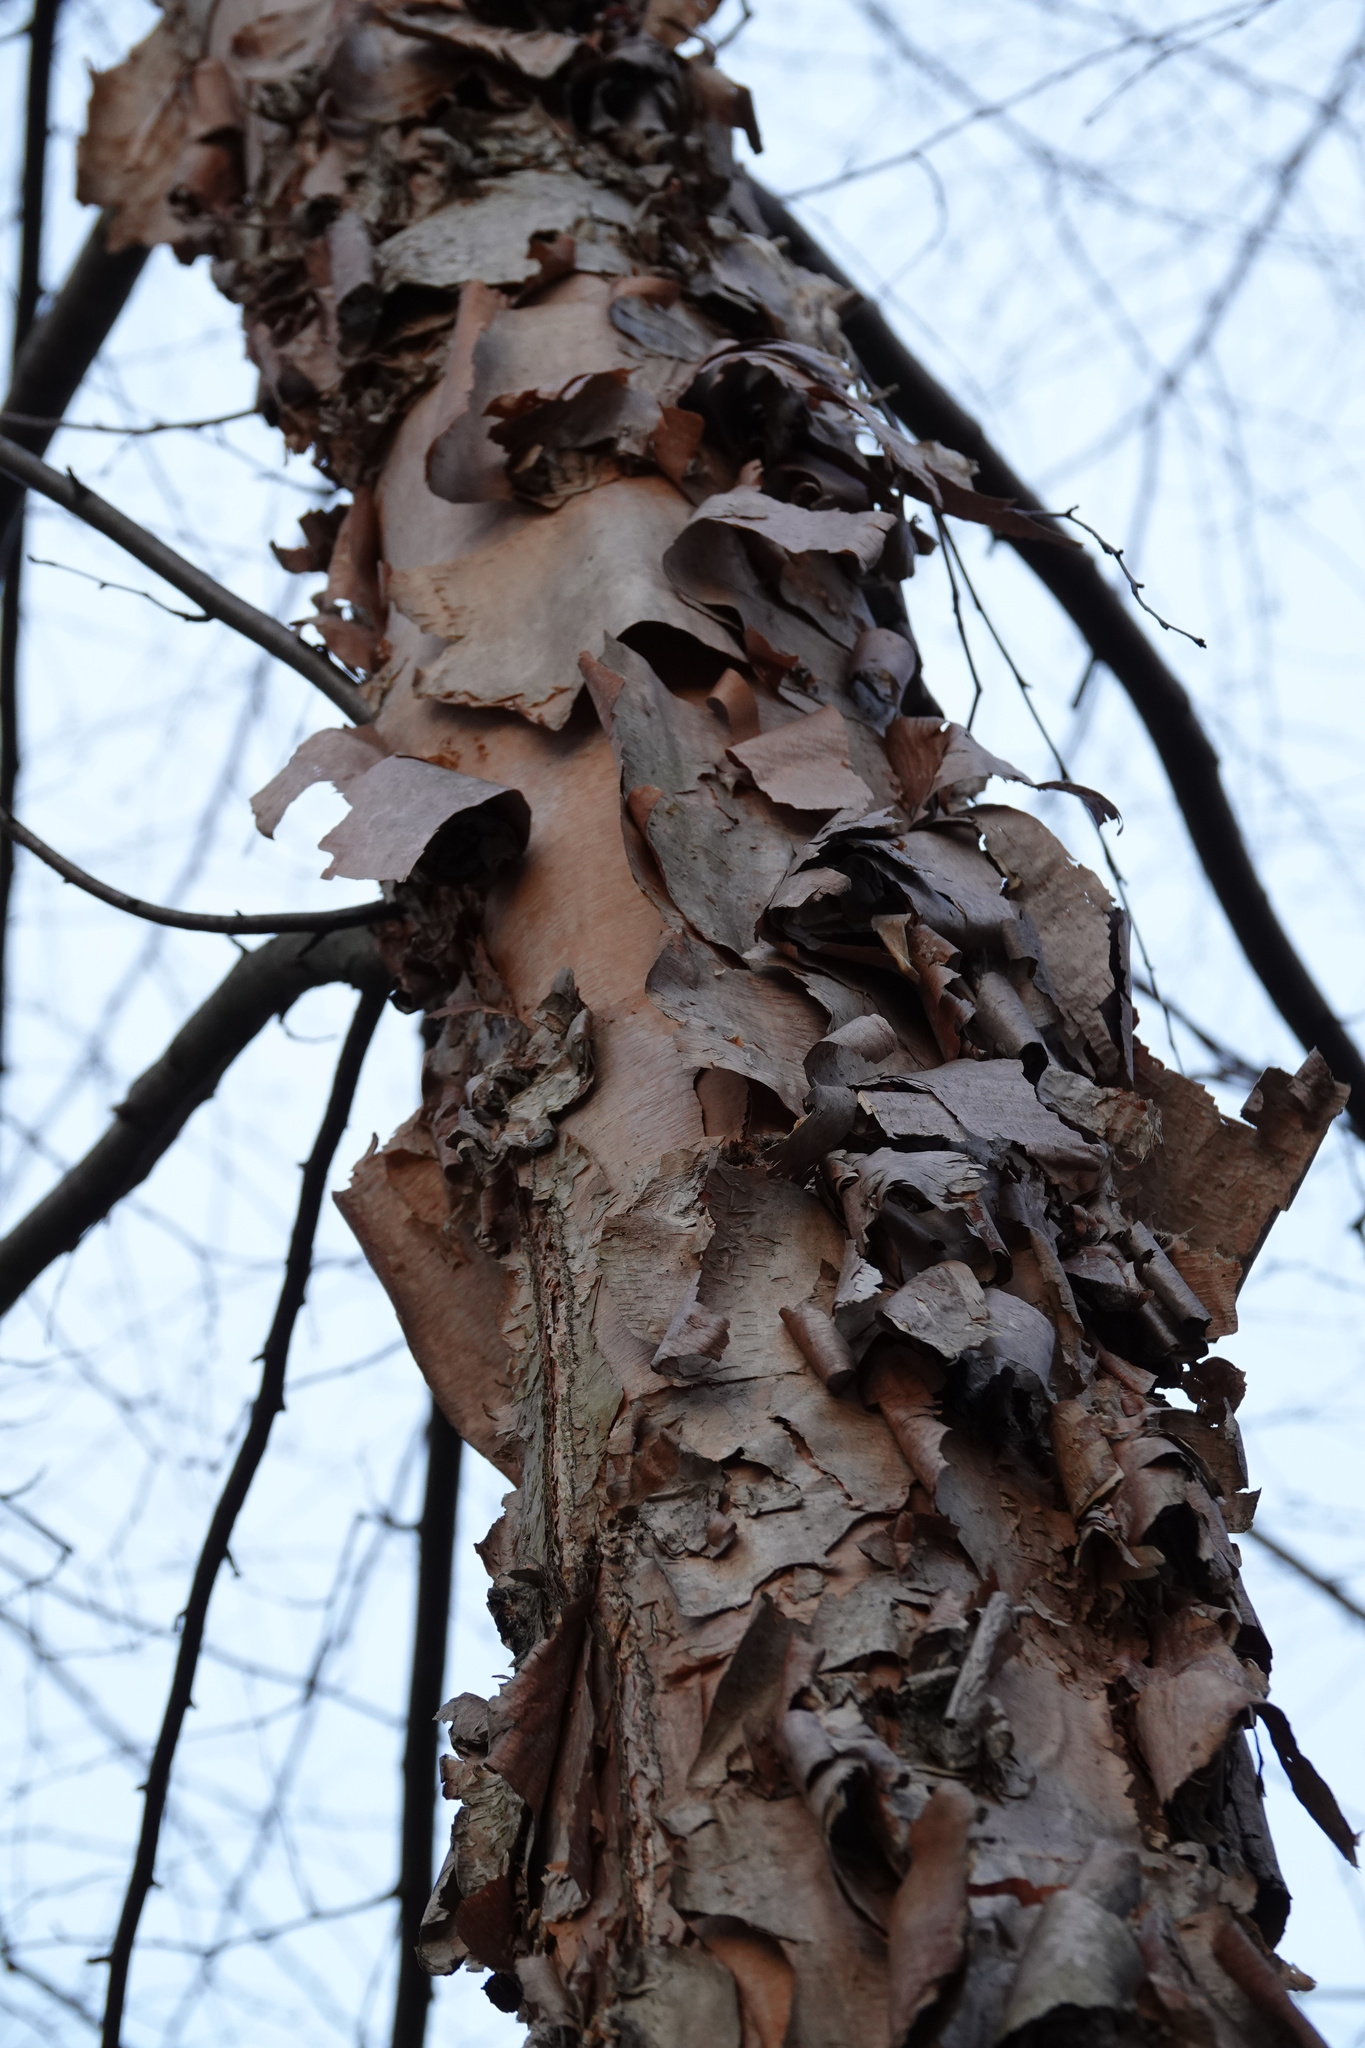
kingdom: Plantae
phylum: Tracheophyta
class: Magnoliopsida
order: Fagales
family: Betulaceae
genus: Betula
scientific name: Betula nigra
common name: Black birch
